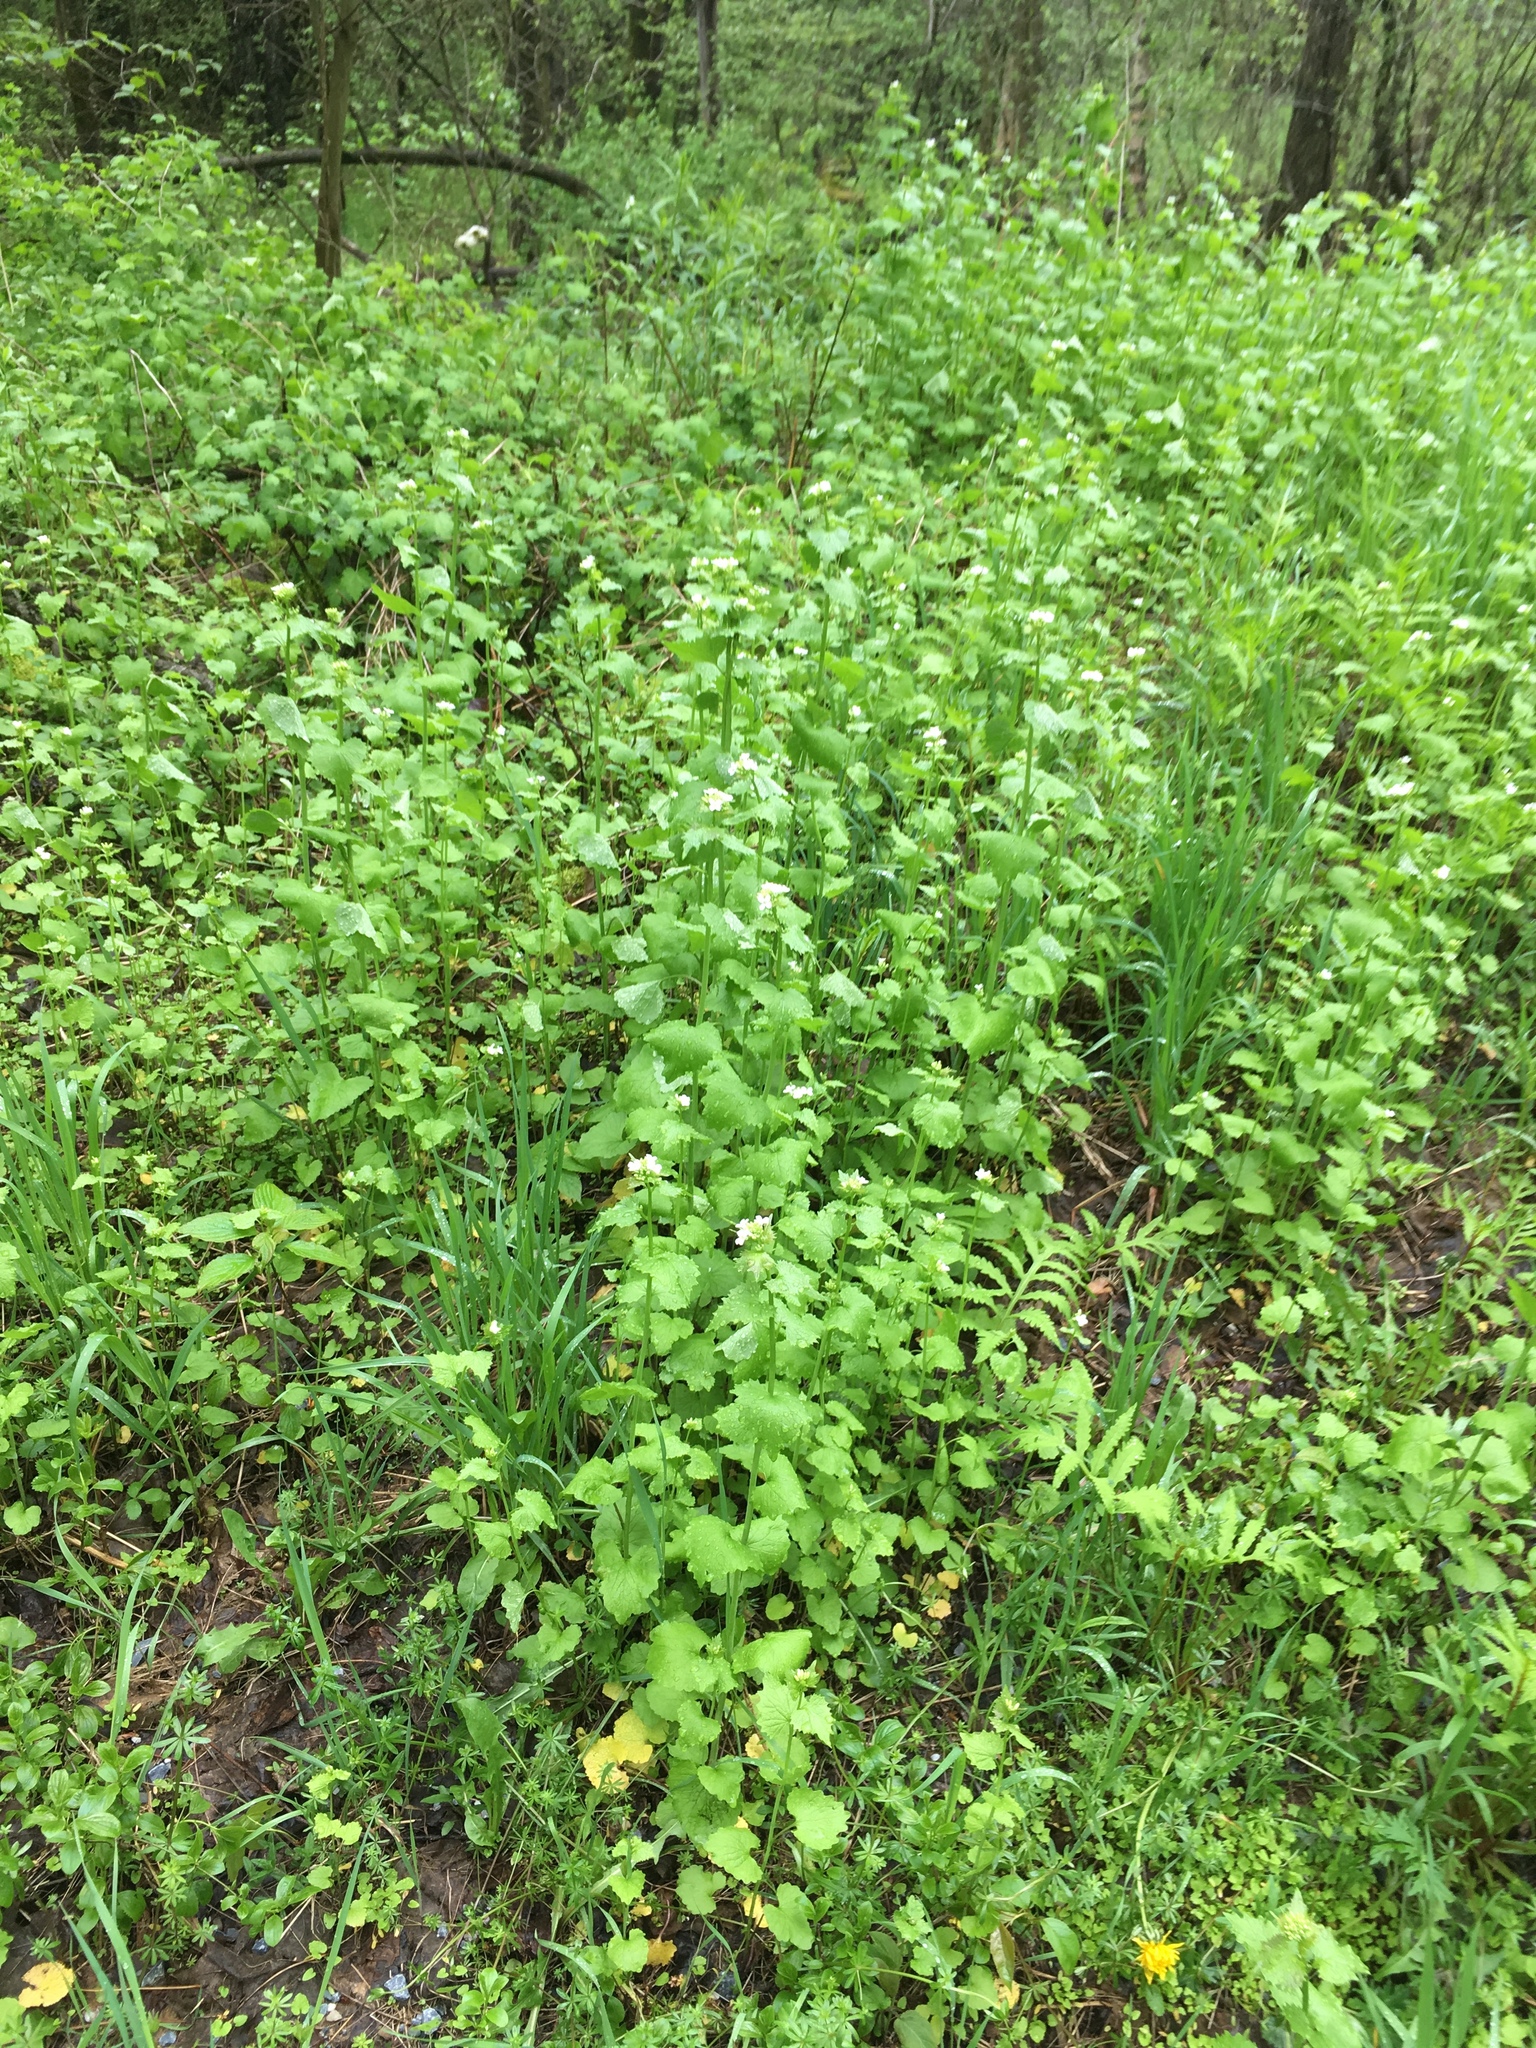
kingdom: Plantae
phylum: Tracheophyta
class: Magnoliopsida
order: Brassicales
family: Brassicaceae
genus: Alliaria
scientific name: Alliaria petiolata
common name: Garlic mustard
